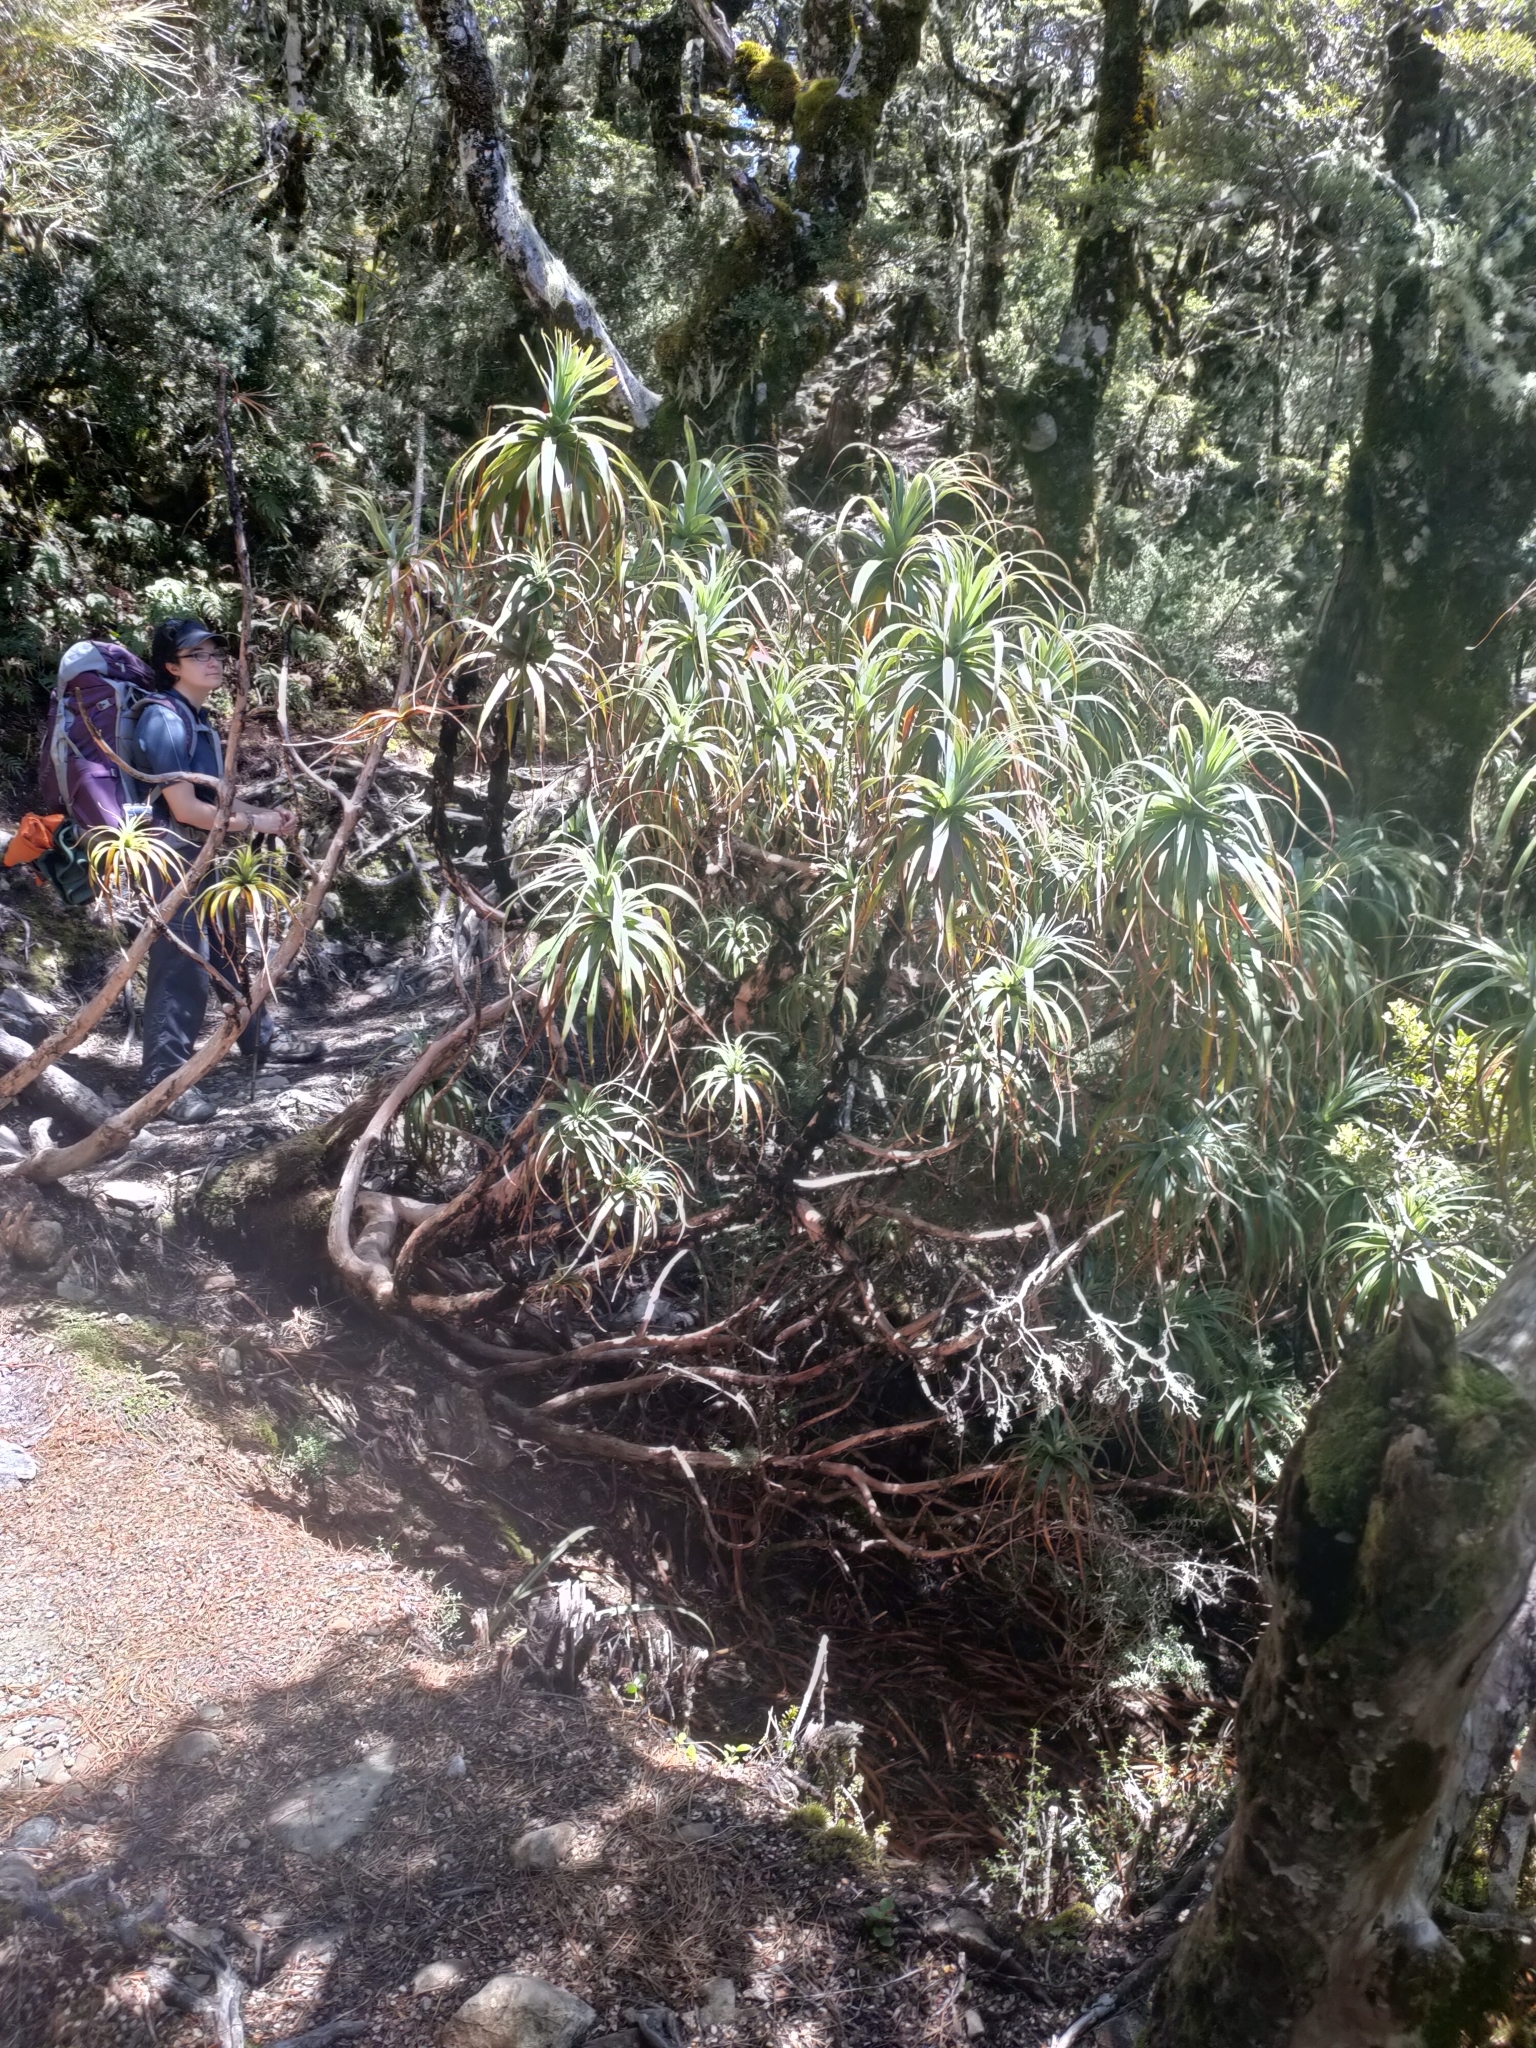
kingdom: Plantae
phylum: Tracheophyta
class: Magnoliopsida
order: Ericales
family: Ericaceae
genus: Dracophyllum
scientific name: Dracophyllum traversii
